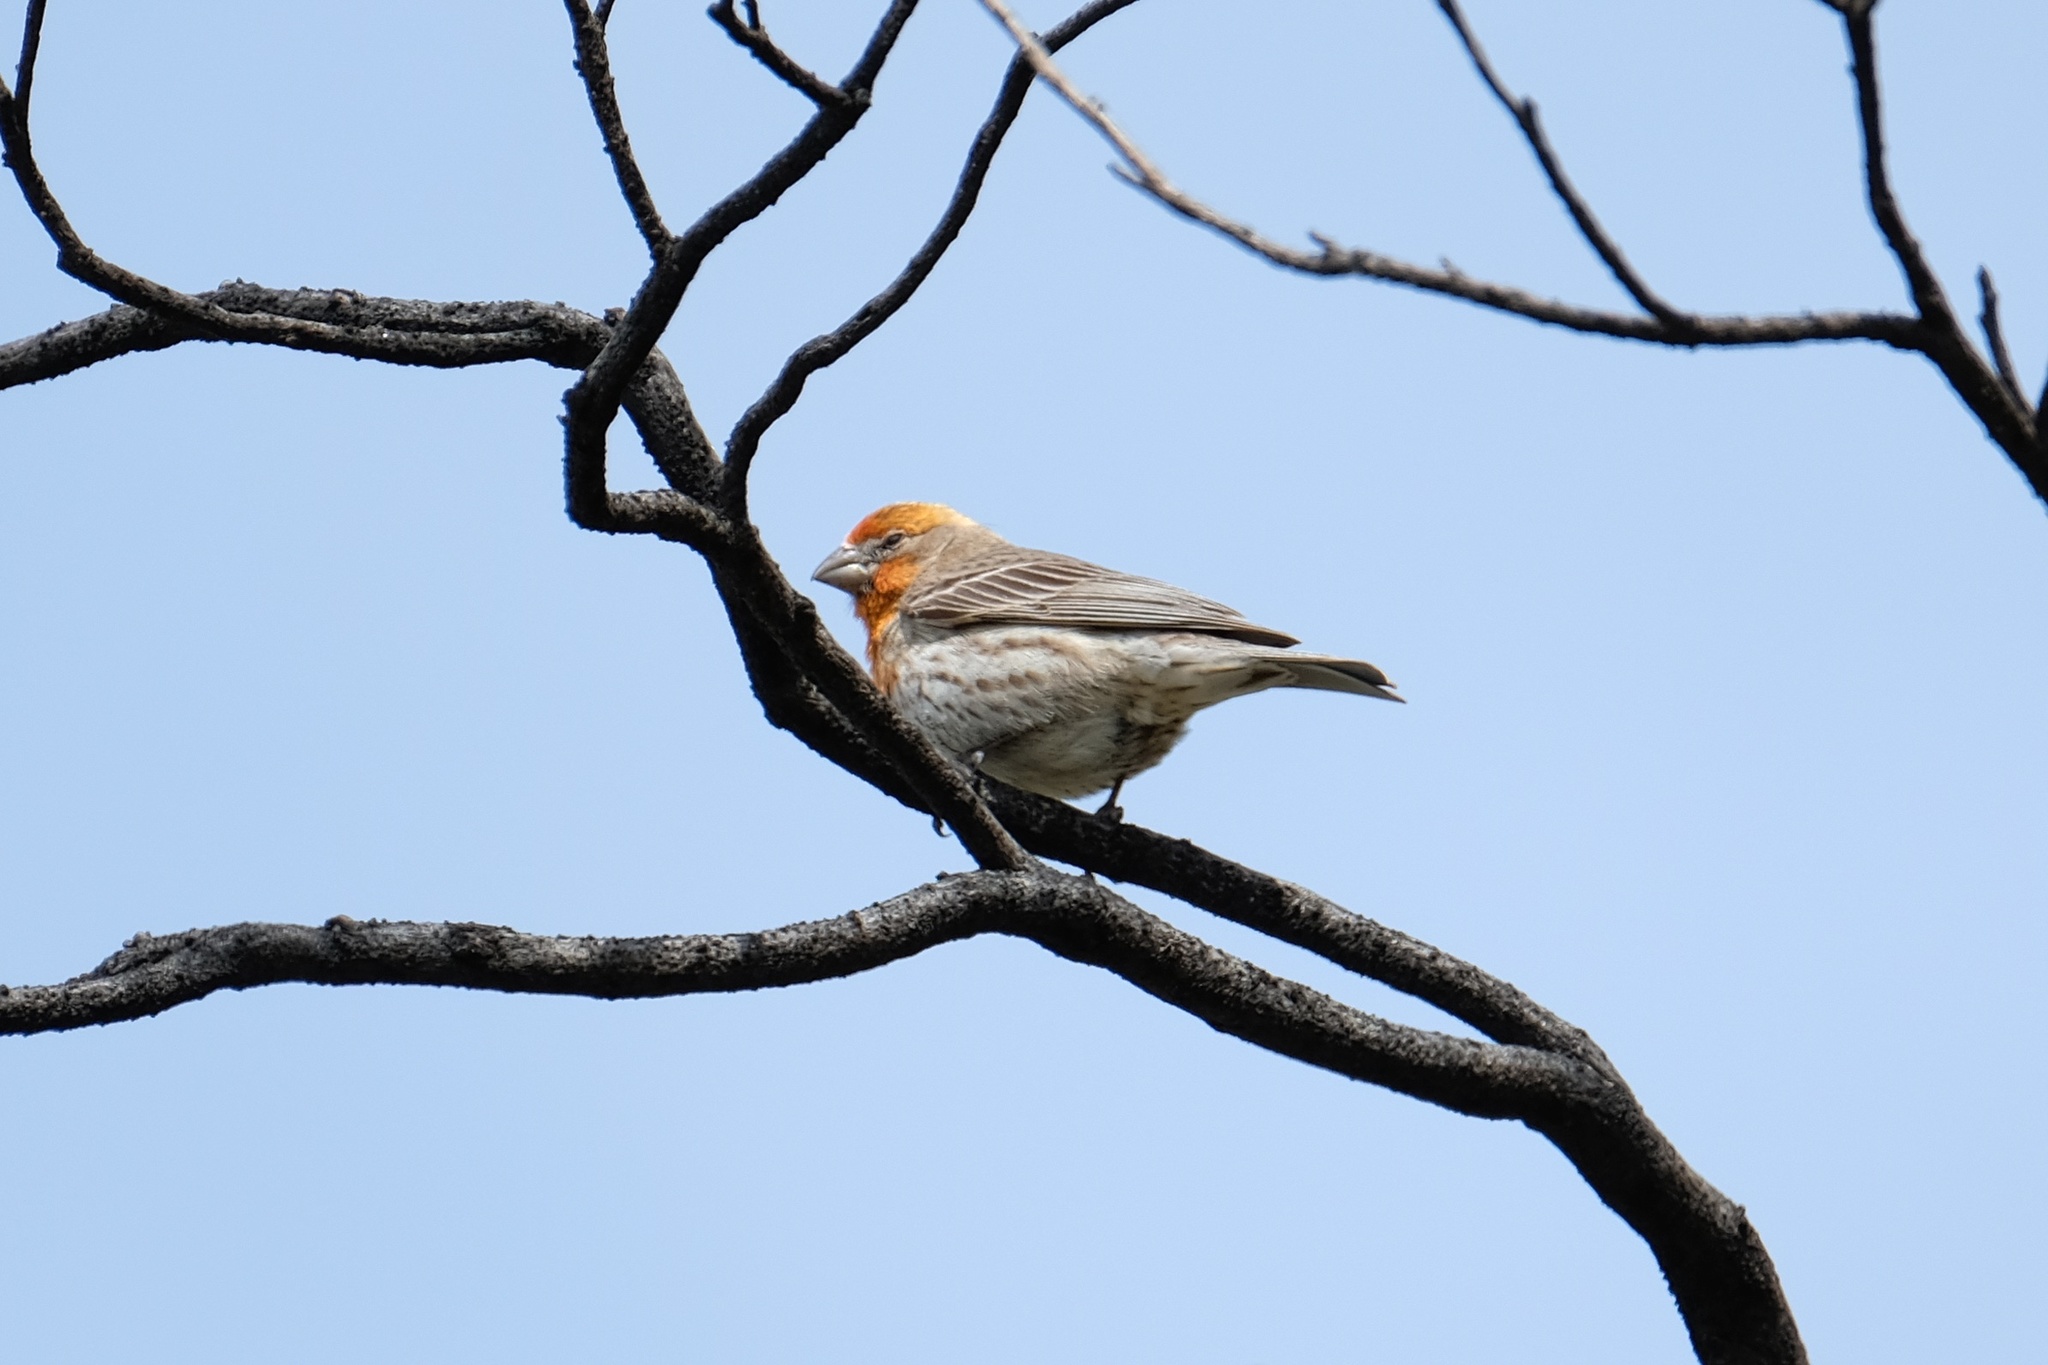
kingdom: Animalia
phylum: Chordata
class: Aves
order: Passeriformes
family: Fringillidae
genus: Haemorhous
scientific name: Haemorhous mexicanus
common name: House finch
